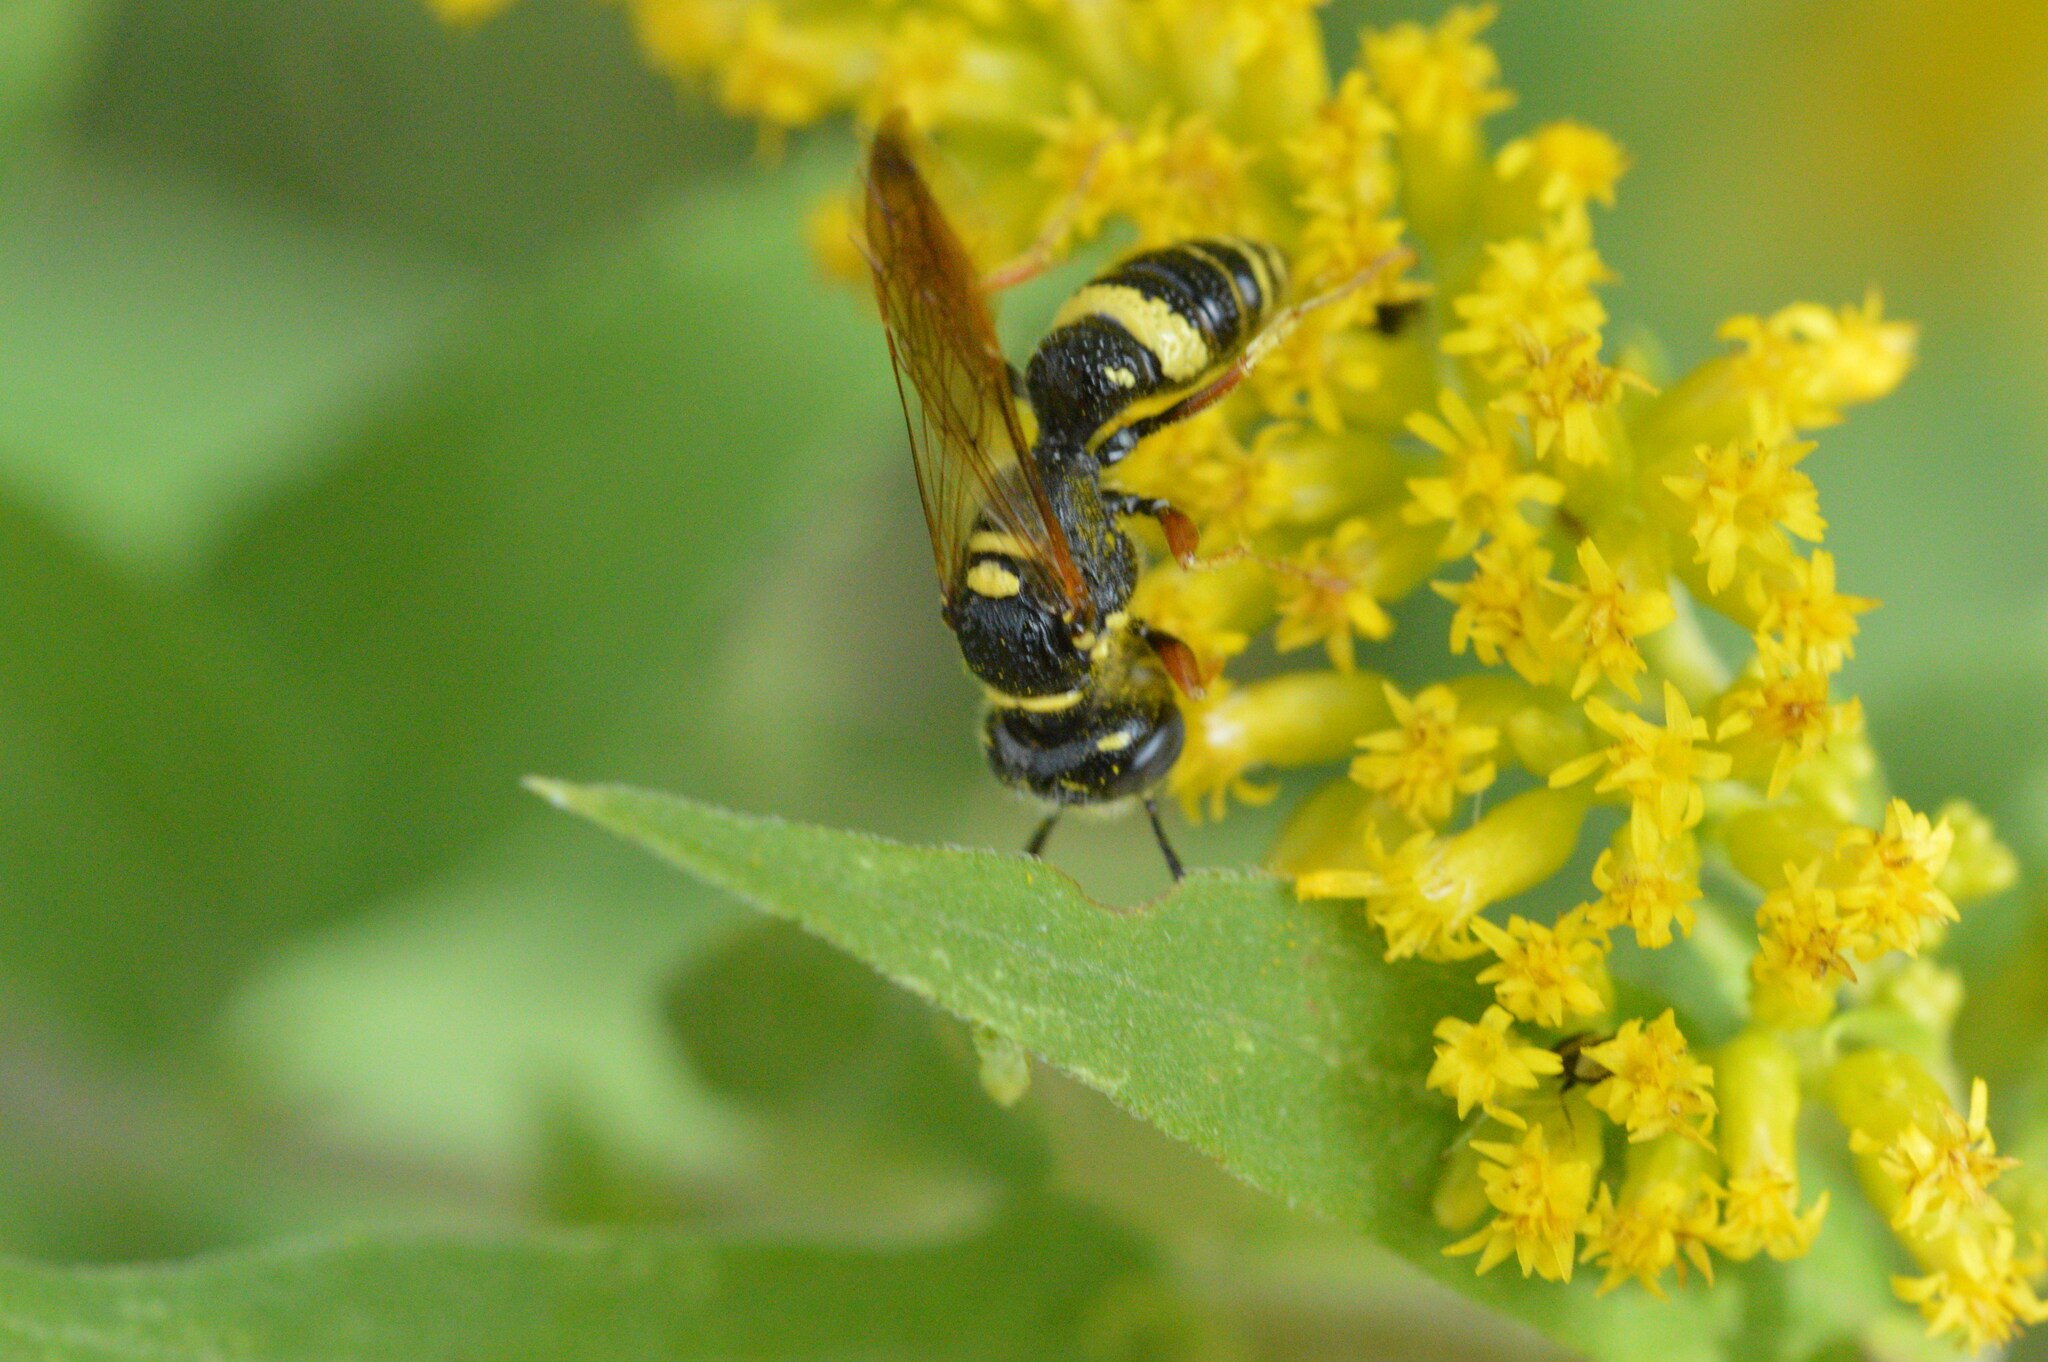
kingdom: Animalia
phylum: Arthropoda
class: Insecta
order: Hymenoptera
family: Crabronidae
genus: Philanthus
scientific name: Philanthus gibbosus
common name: Humped beewolf
